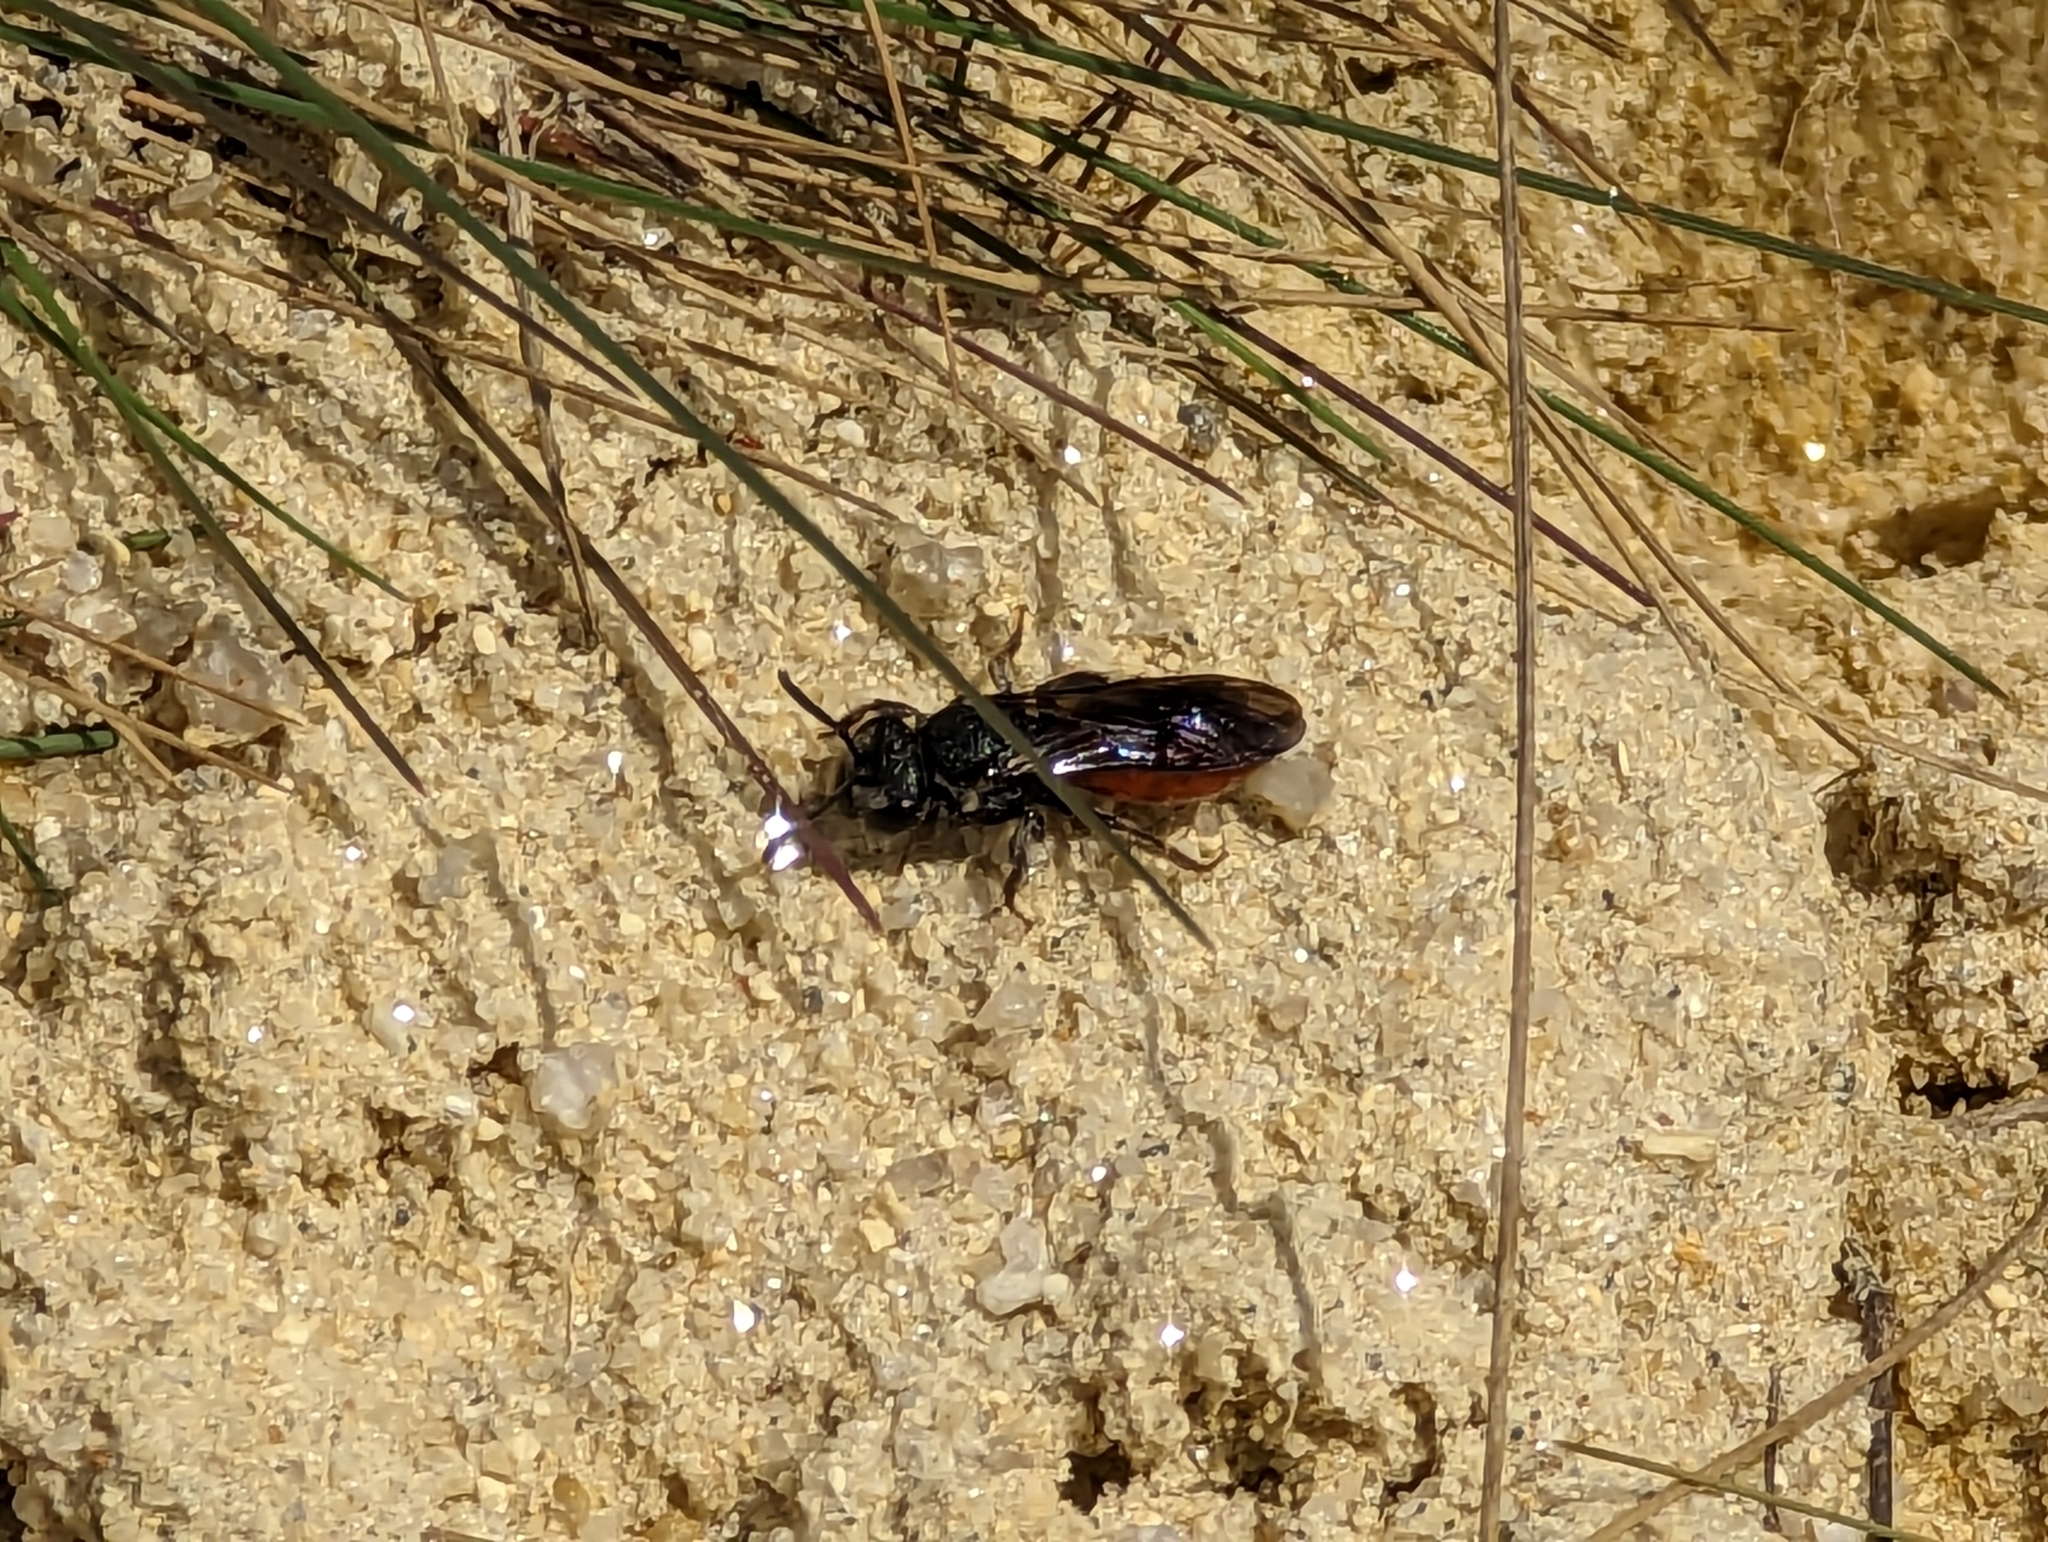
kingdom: Animalia
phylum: Arthropoda
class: Insecta
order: Hymenoptera
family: Halictidae
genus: Sphecodes
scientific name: Sphecodes albilabris
